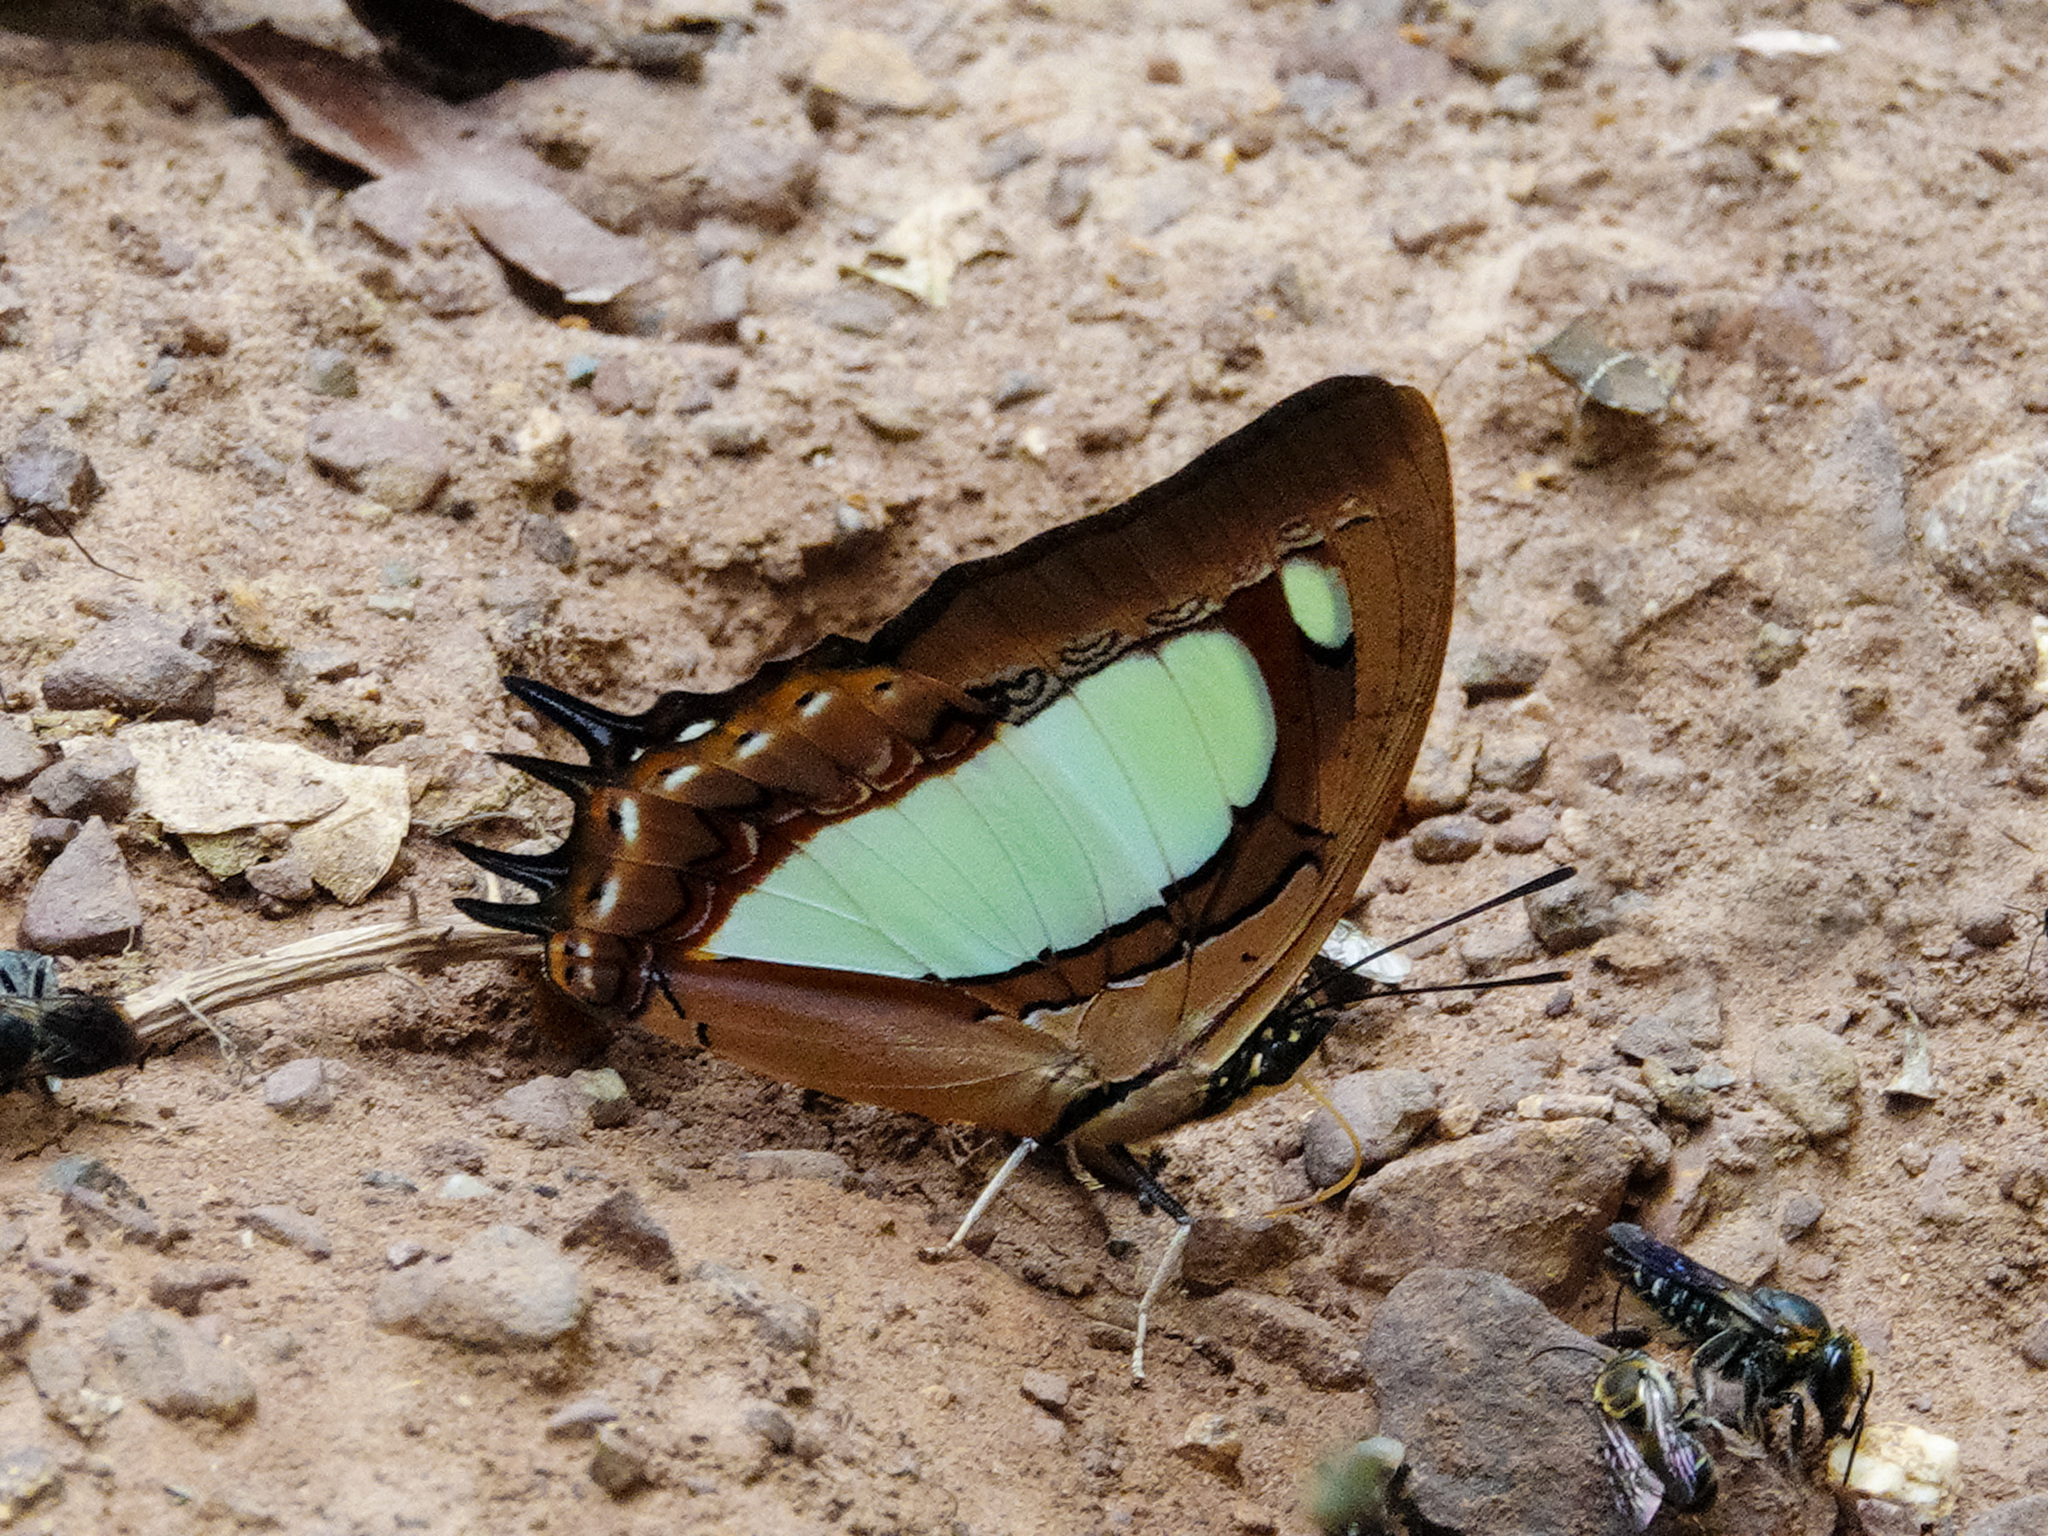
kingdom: Animalia
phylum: Arthropoda
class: Insecta
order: Lepidoptera
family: Nymphalidae
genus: Polyura
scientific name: Polyura arja
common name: Pallid nawab
